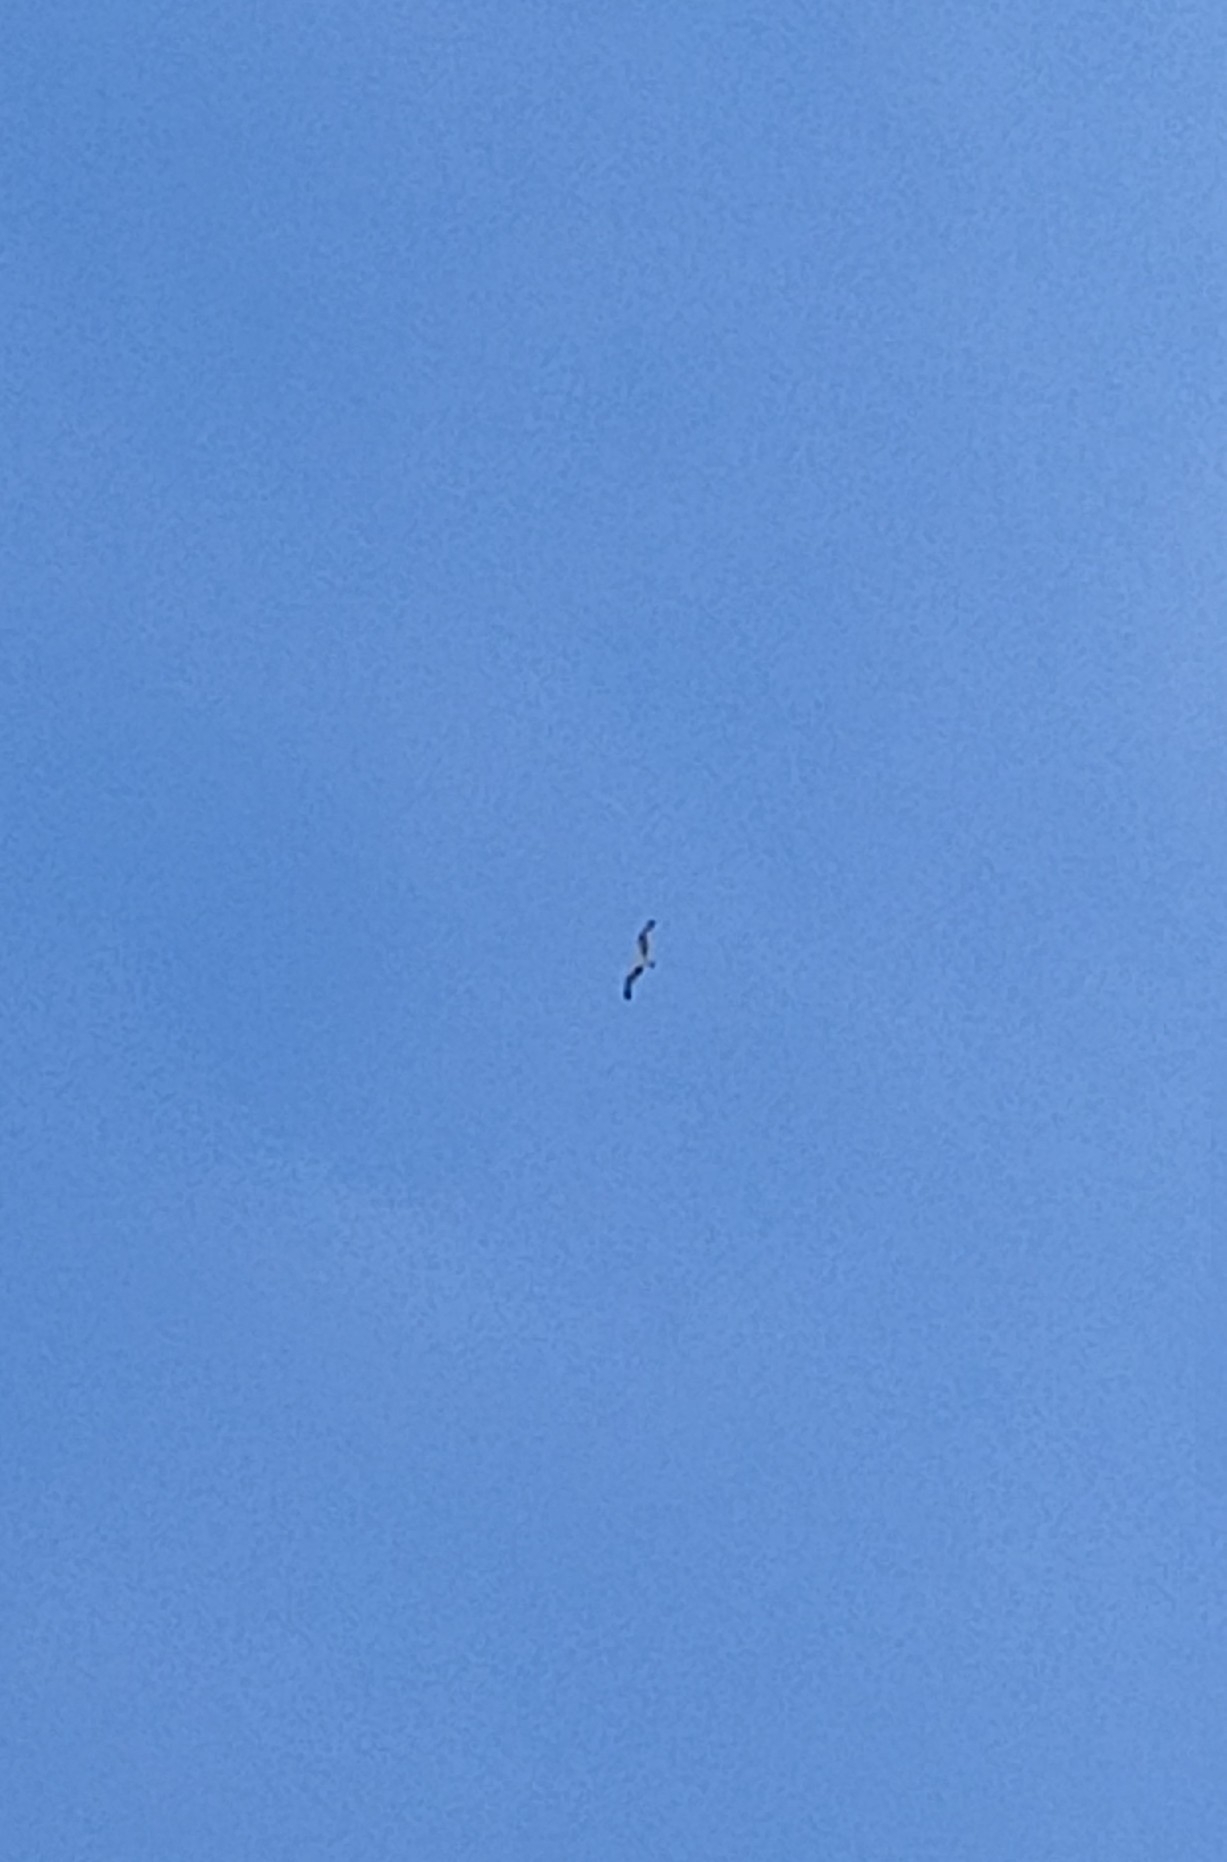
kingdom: Animalia
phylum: Chordata
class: Aves
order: Accipitriformes
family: Pandionidae
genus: Pandion
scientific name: Pandion haliaetus
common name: Osprey
